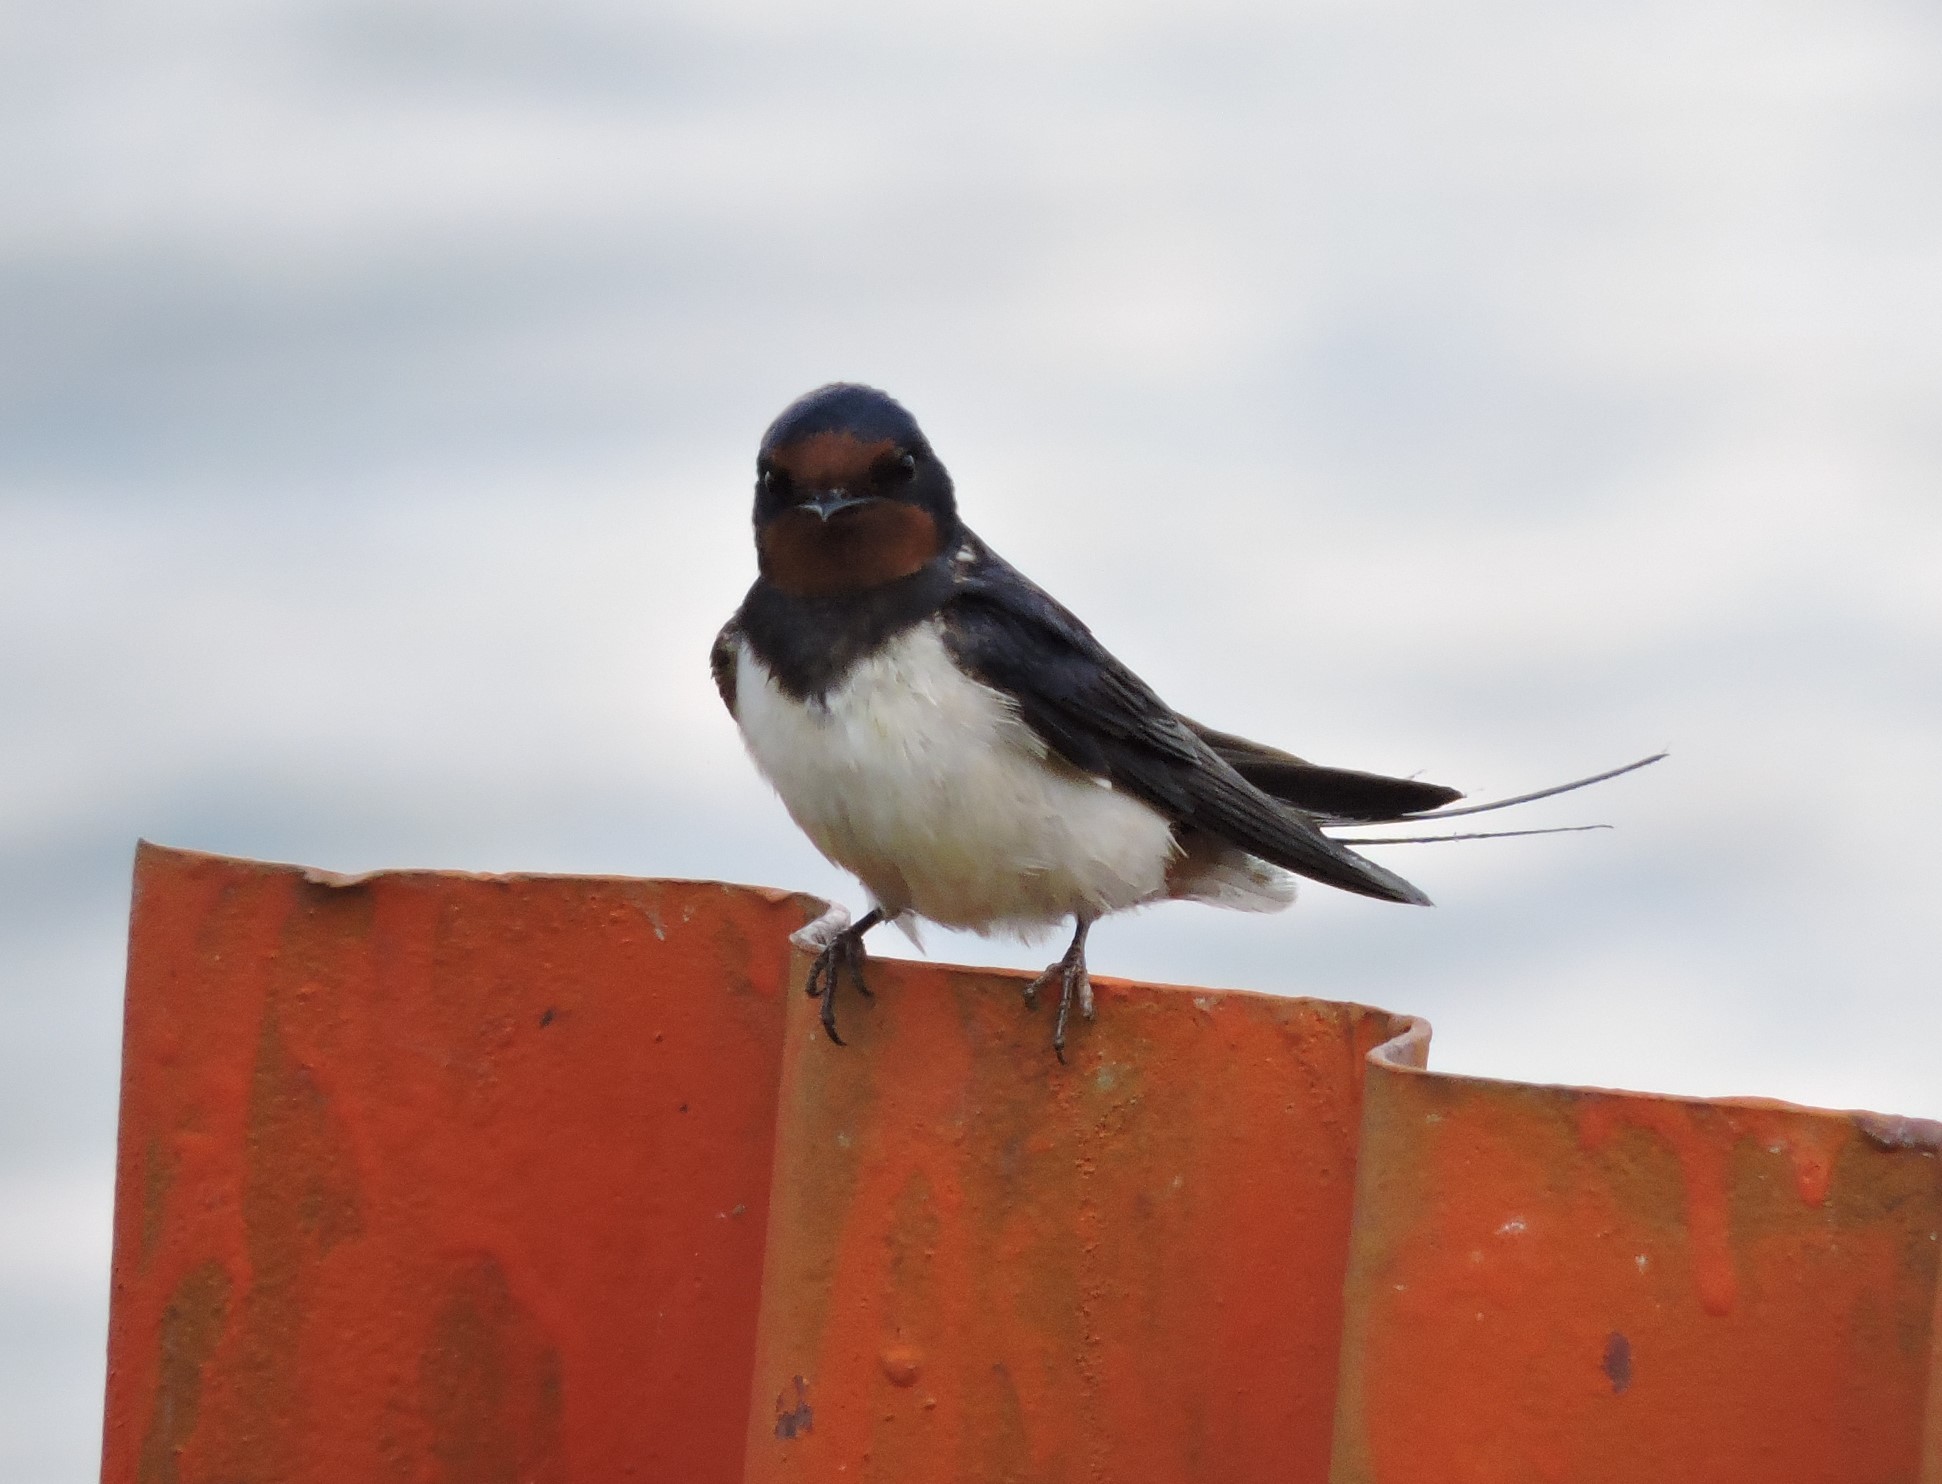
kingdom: Animalia
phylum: Chordata
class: Aves
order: Passeriformes
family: Hirundinidae
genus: Hirundo
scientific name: Hirundo rustica
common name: Barn swallow
